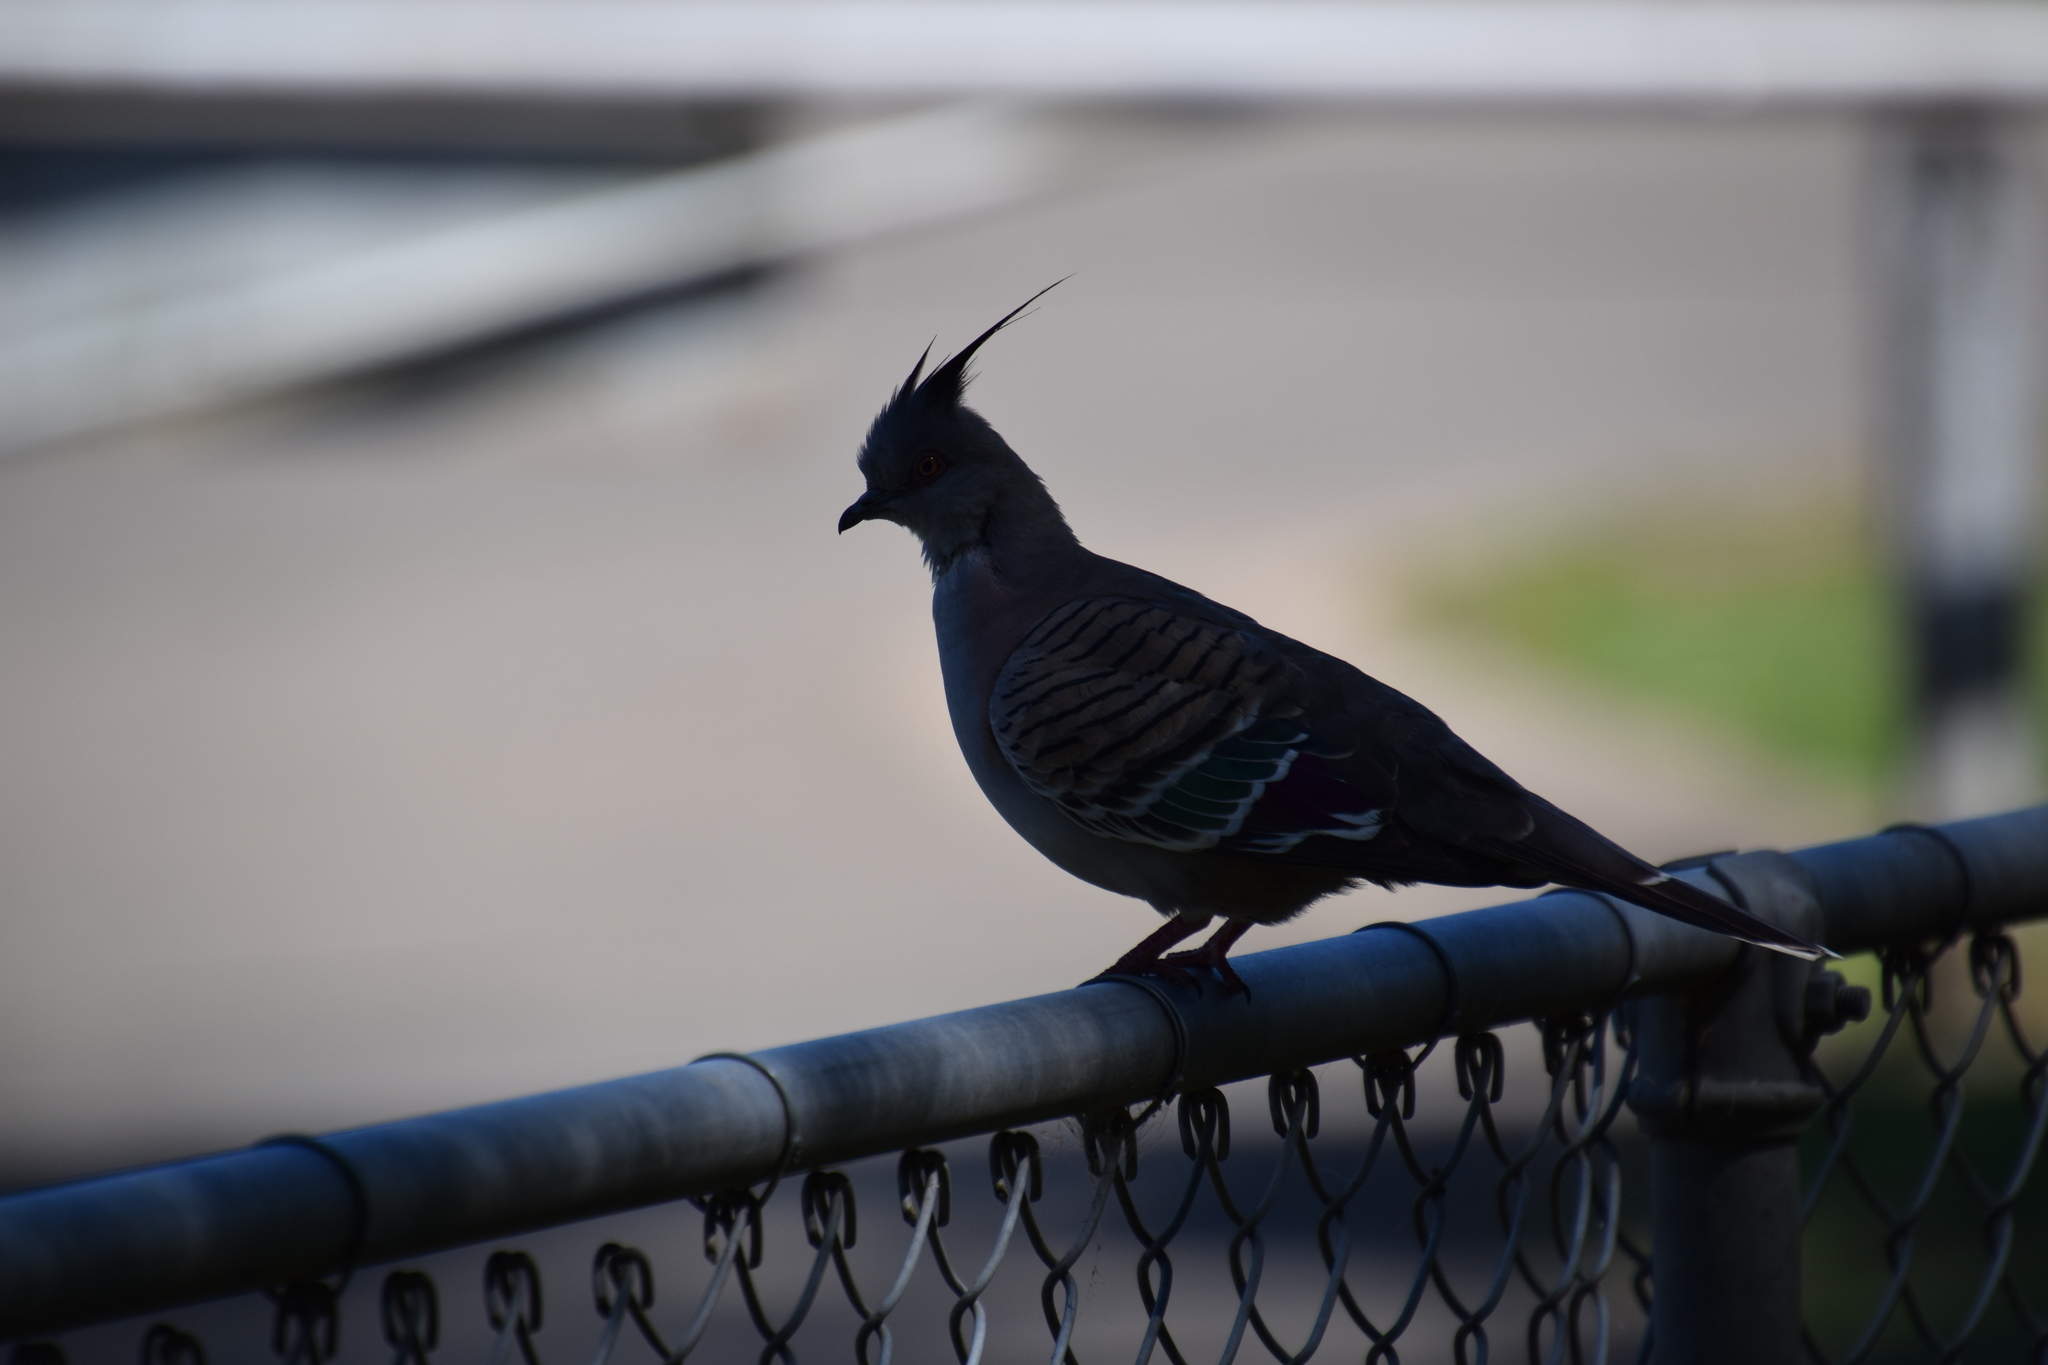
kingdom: Animalia
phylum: Chordata
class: Aves
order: Columbiformes
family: Columbidae
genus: Ocyphaps
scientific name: Ocyphaps lophotes
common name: Crested pigeon
